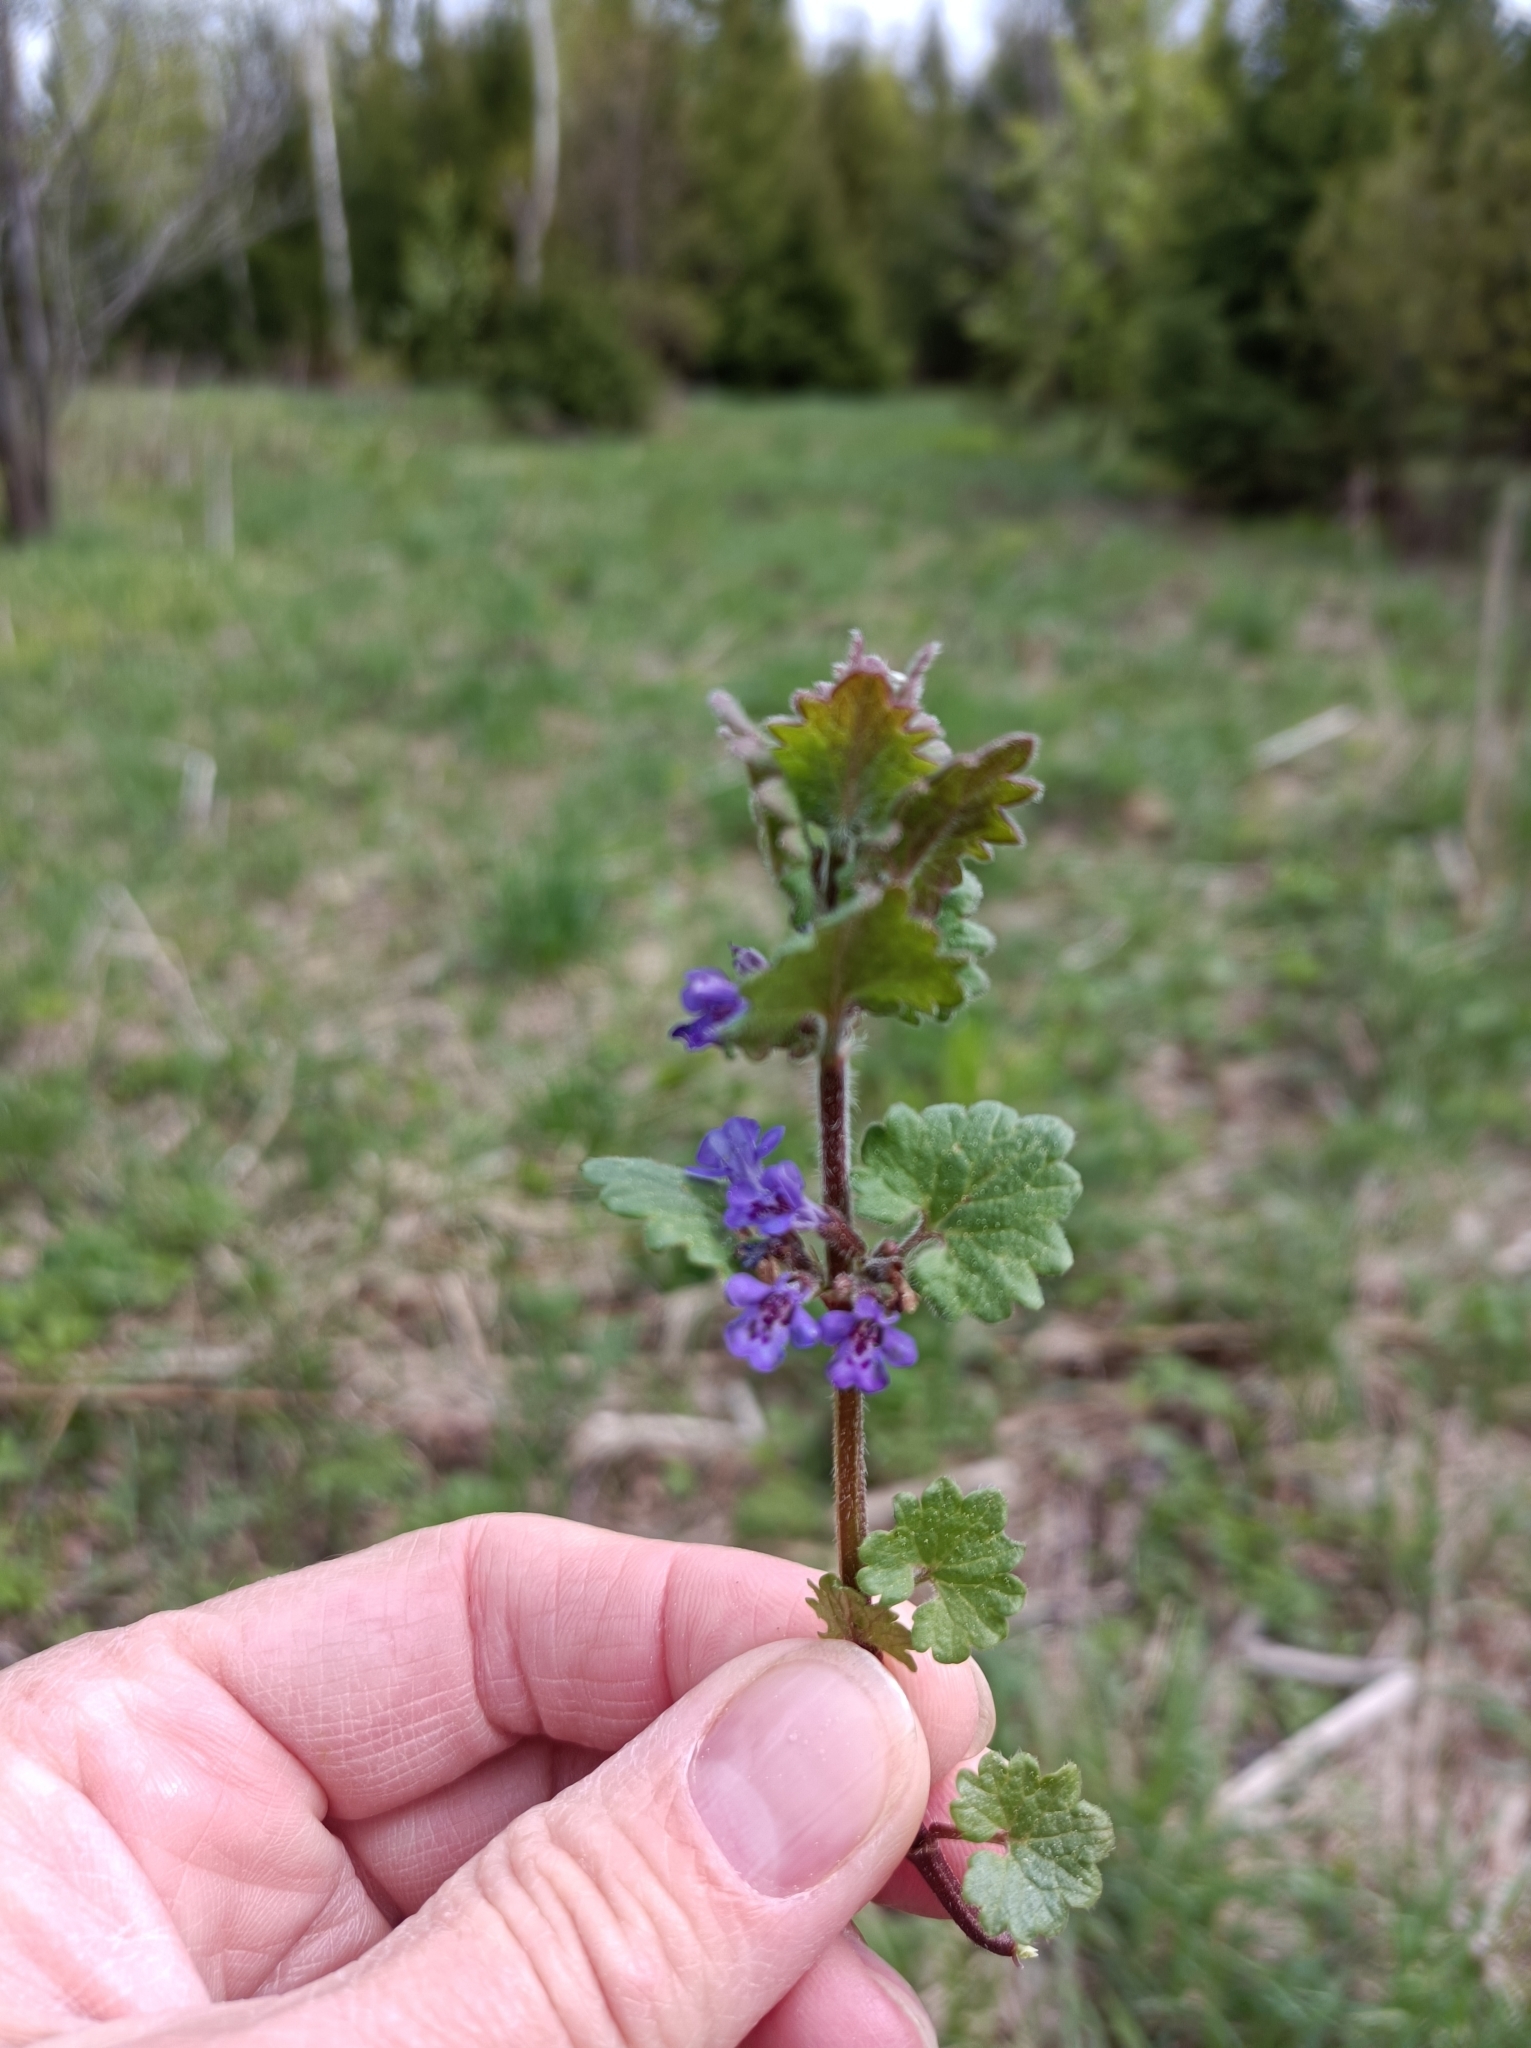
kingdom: Plantae
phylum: Tracheophyta
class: Magnoliopsida
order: Lamiales
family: Lamiaceae
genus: Glechoma
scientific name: Glechoma hederacea
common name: Ground ivy
